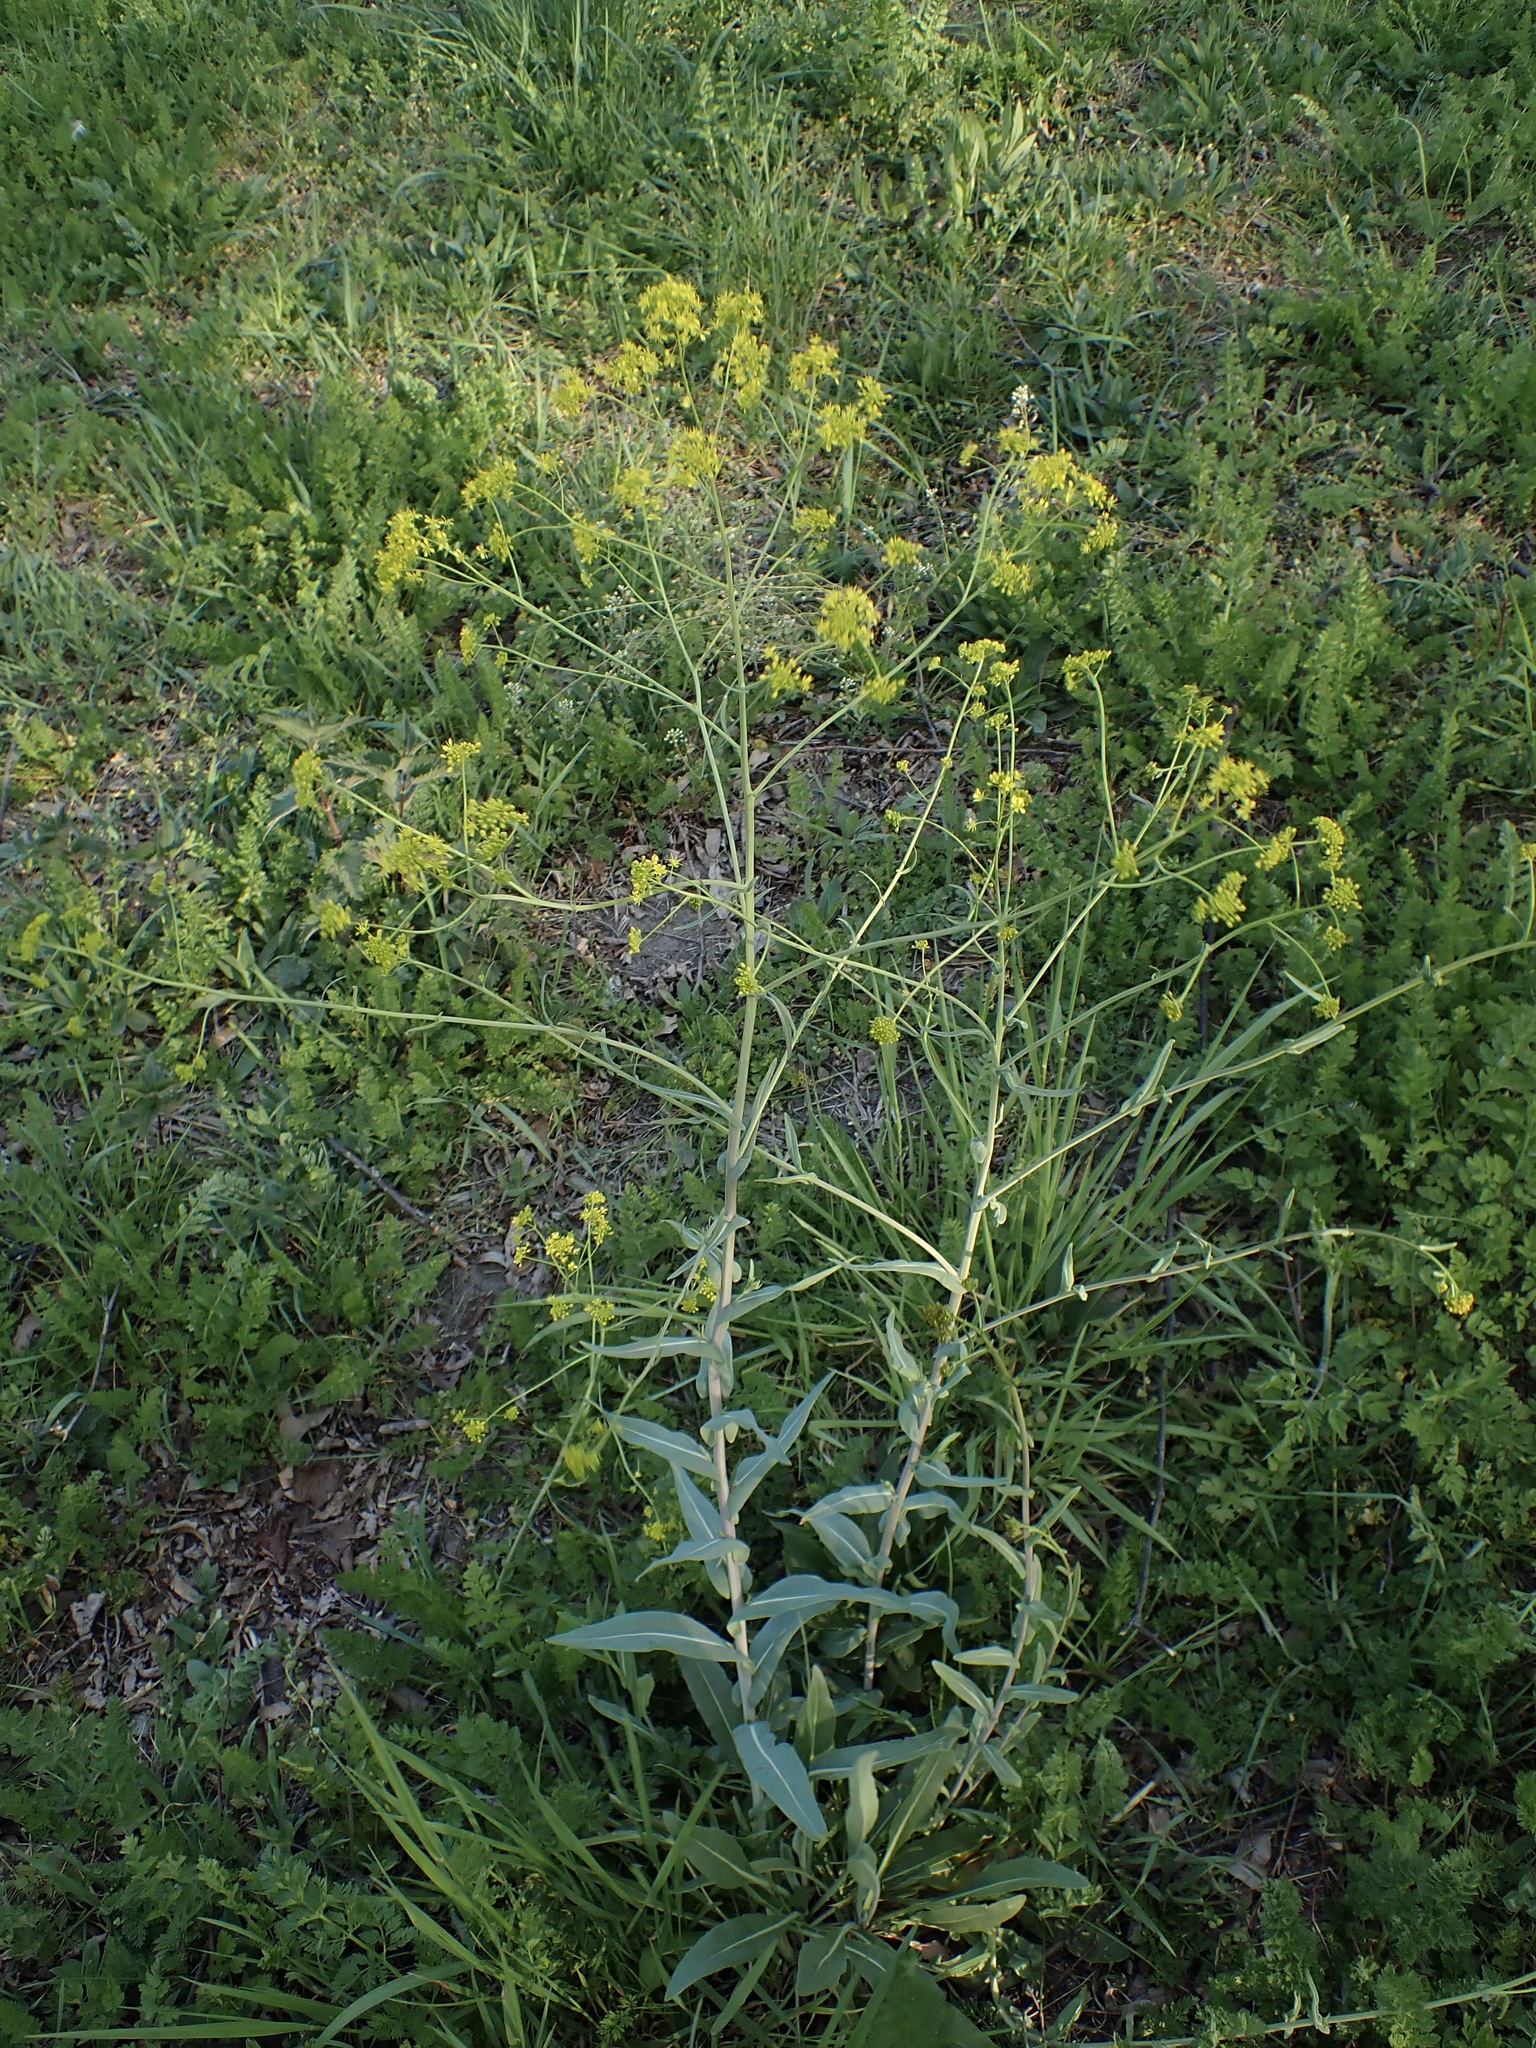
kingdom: Plantae
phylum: Tracheophyta
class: Magnoliopsida
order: Brassicales
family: Brassicaceae
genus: Isatis
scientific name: Isatis tinctoria
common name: Woad
